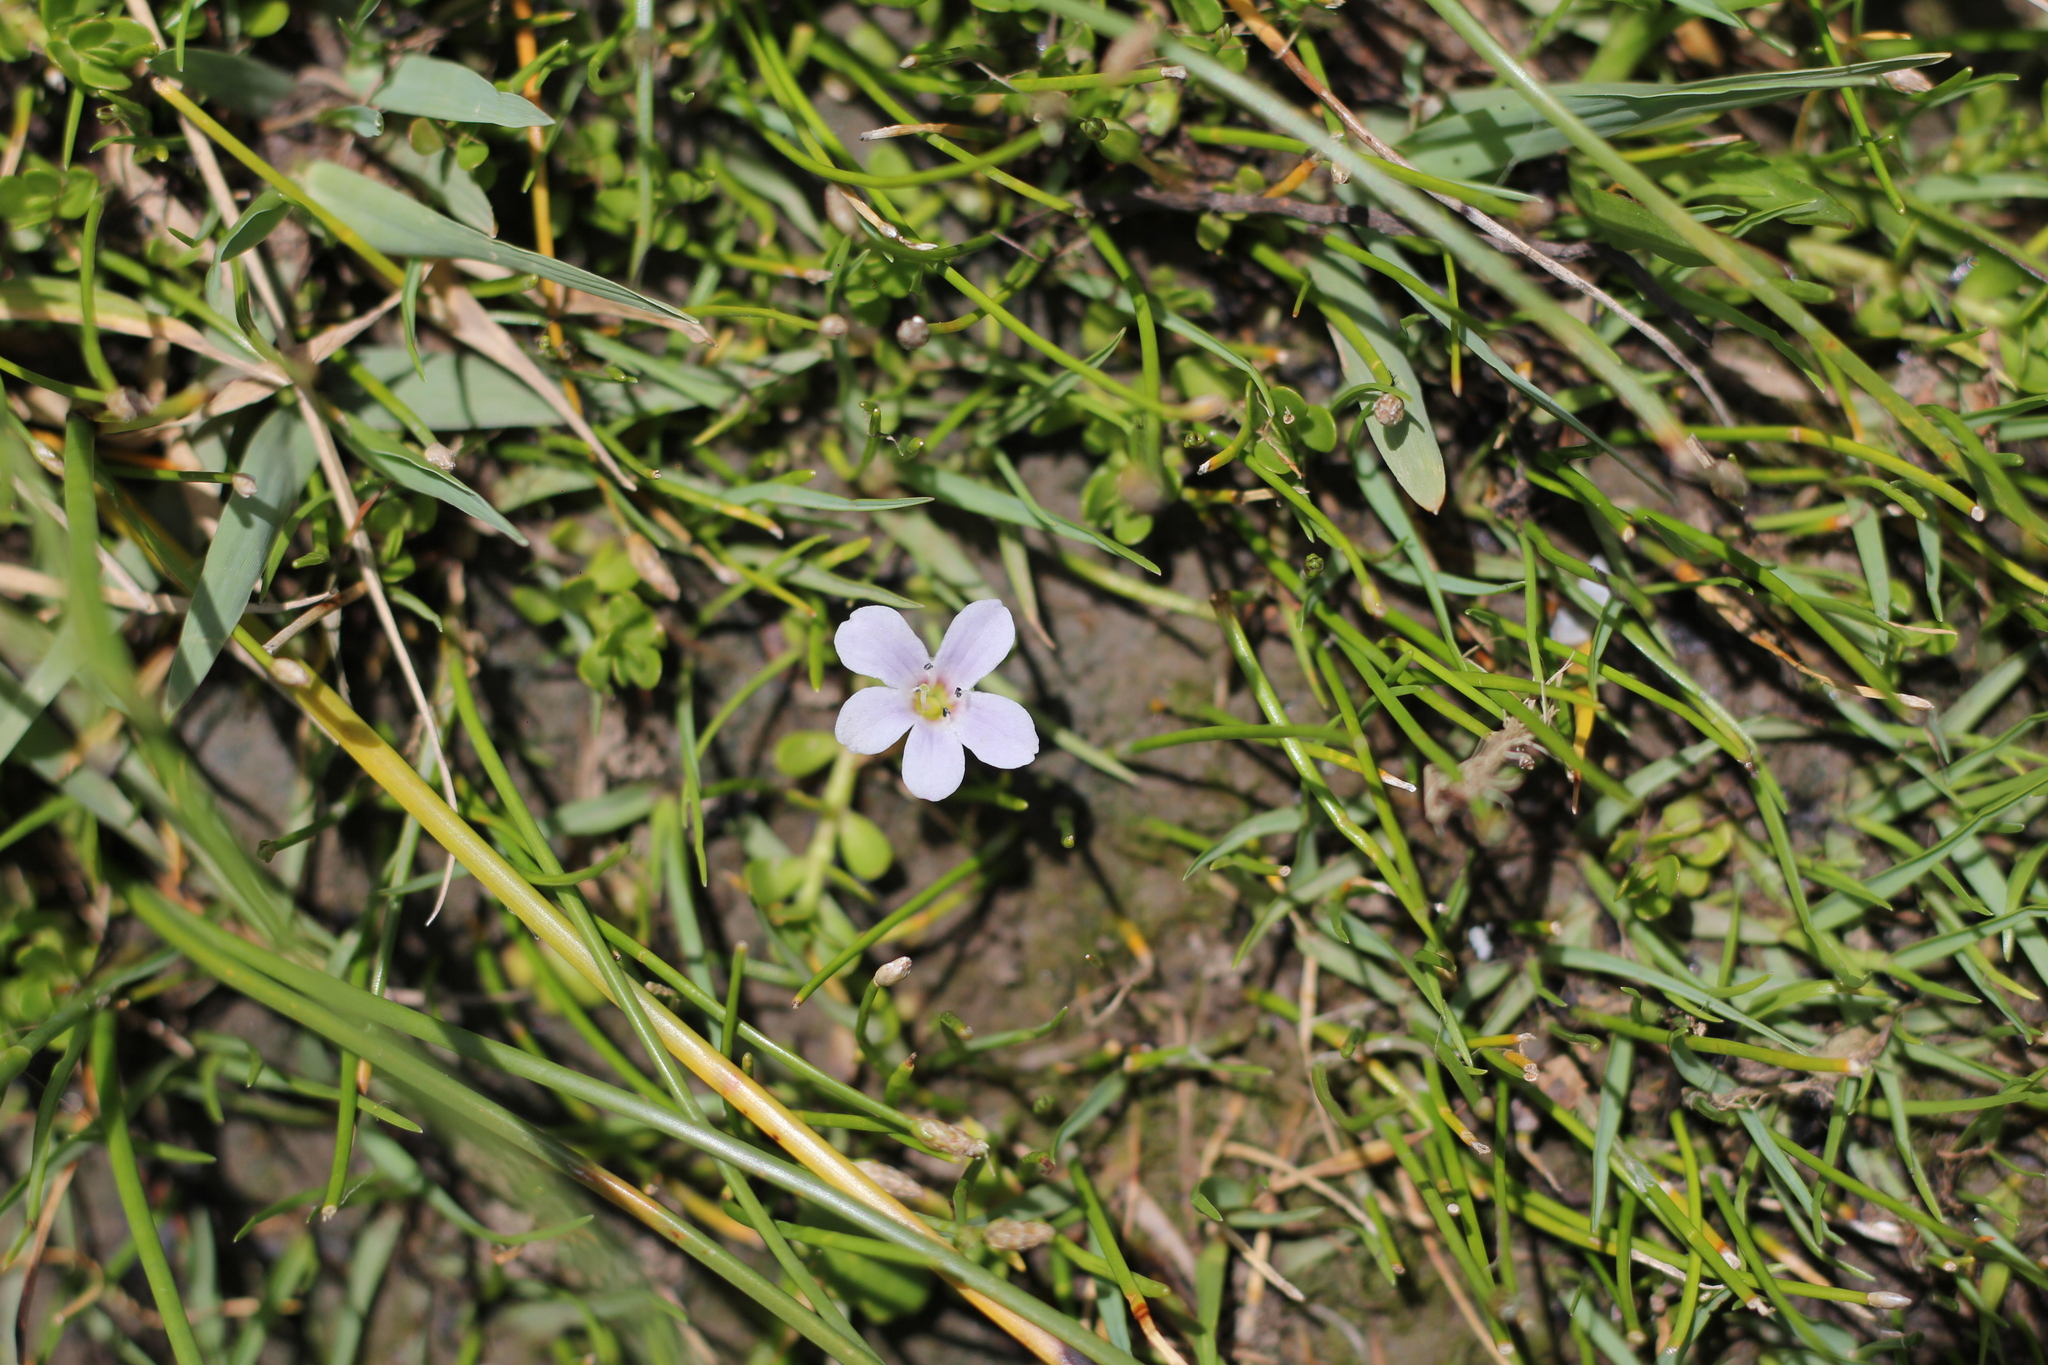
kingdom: Plantae
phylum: Tracheophyta
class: Magnoliopsida
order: Lamiales
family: Plantaginaceae
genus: Bacopa
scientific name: Bacopa monnieri
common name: Indian-pennywort
